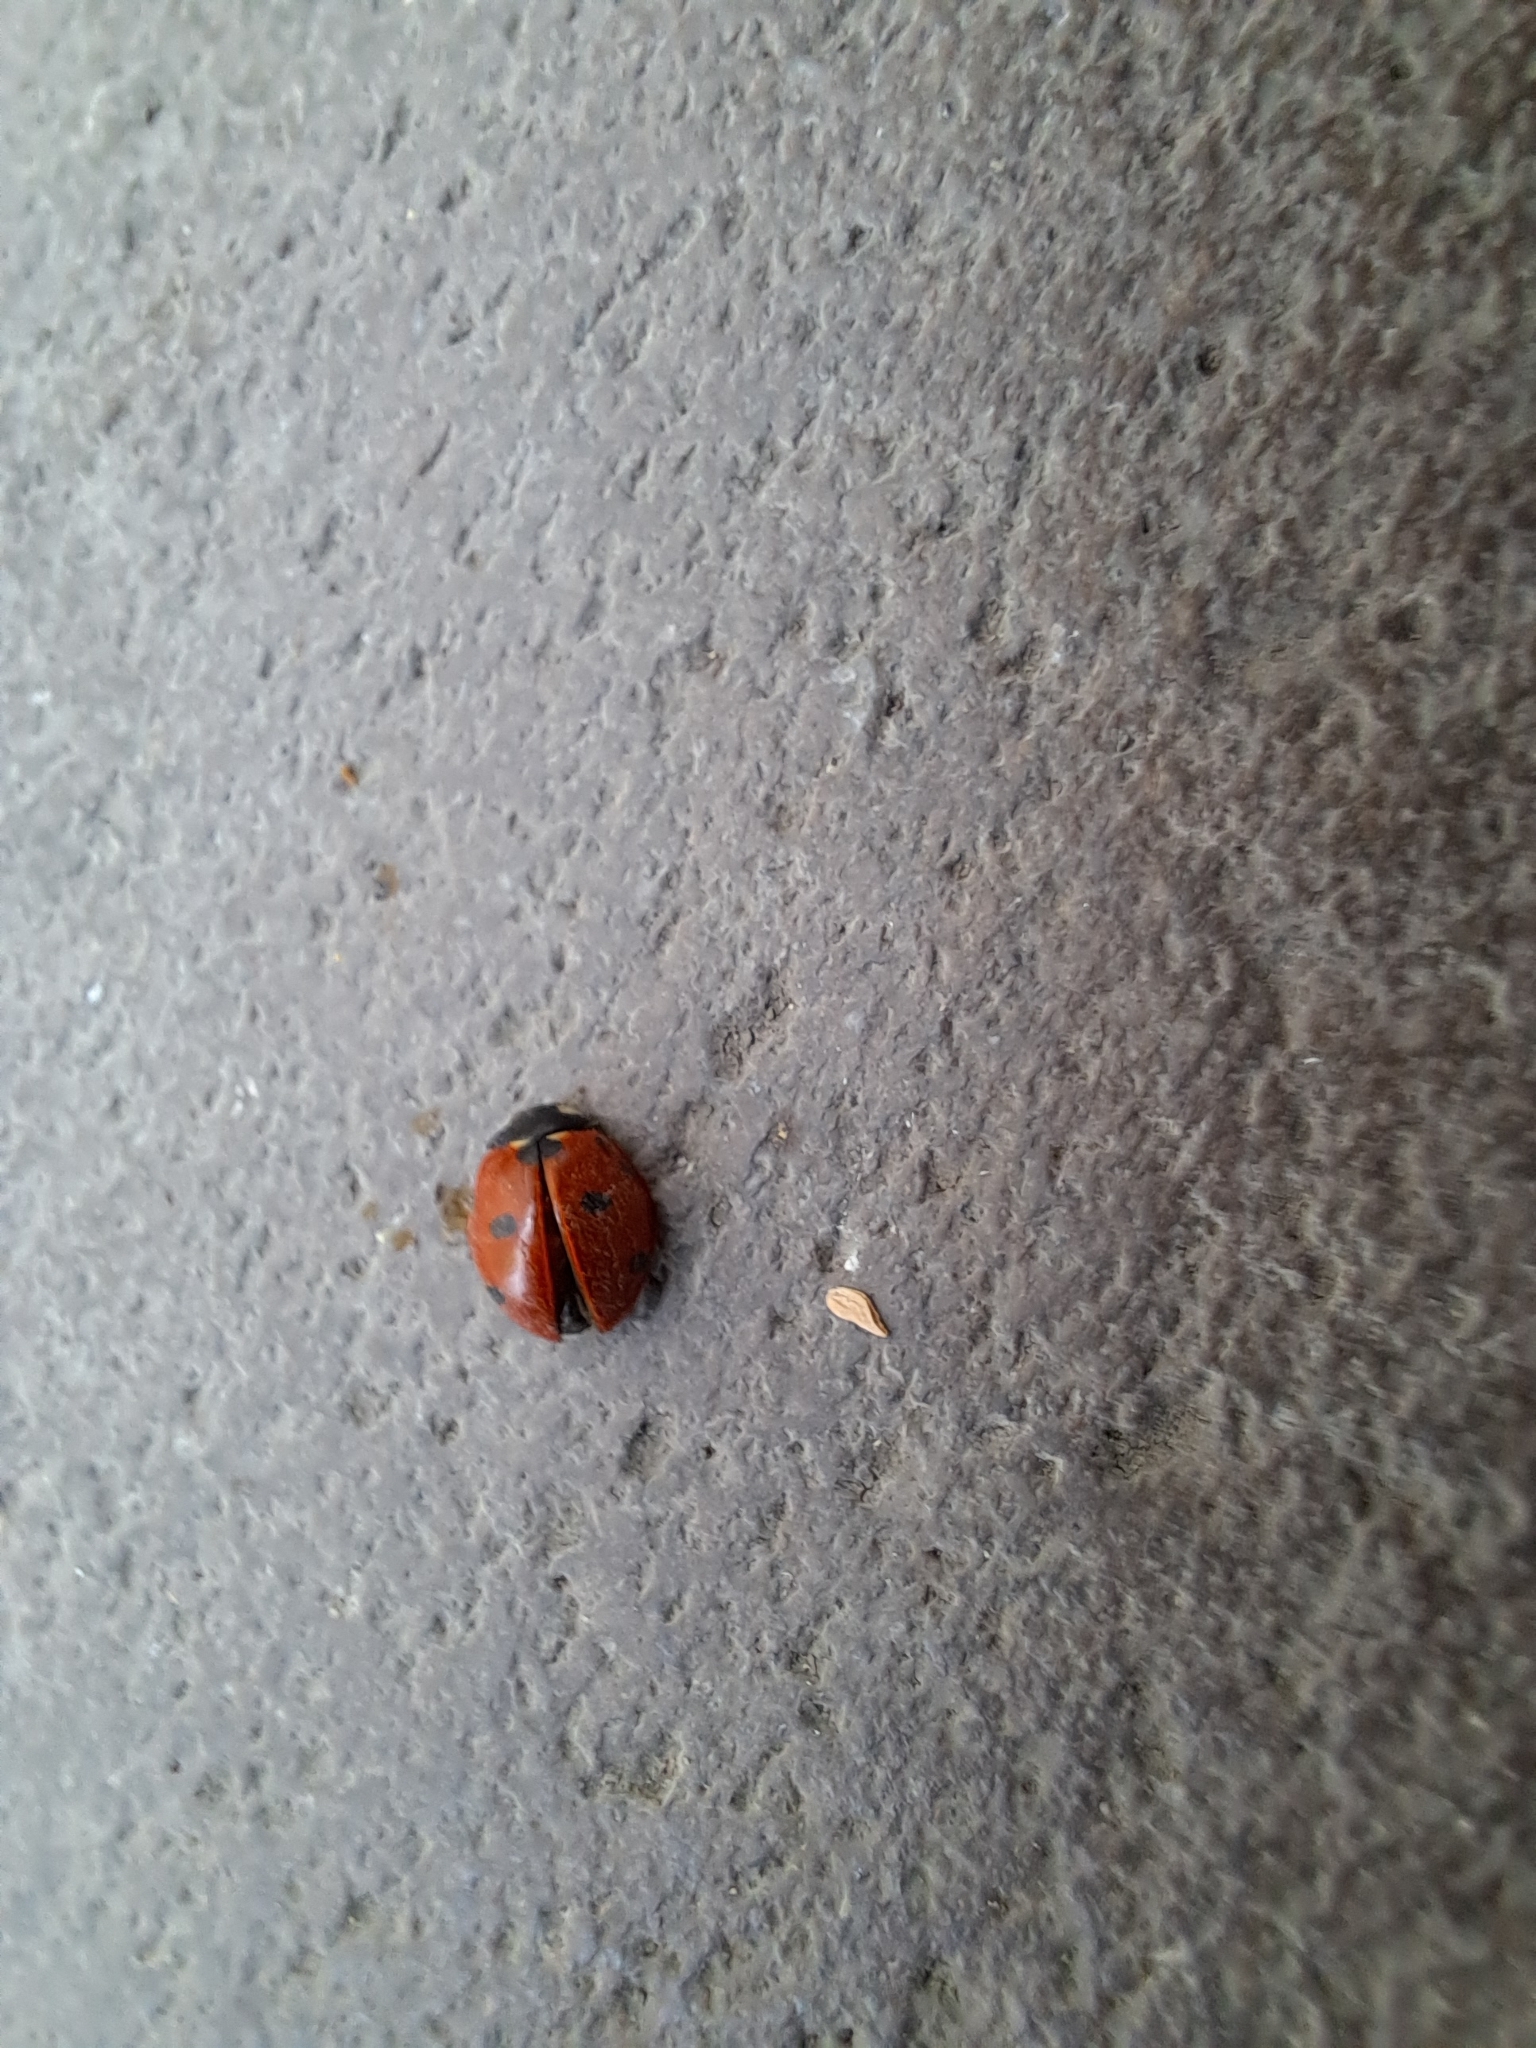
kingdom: Animalia
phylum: Arthropoda
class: Insecta
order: Coleoptera
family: Coccinellidae
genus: Coccinella
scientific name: Coccinella septempunctata
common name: Sevenspotted lady beetle
